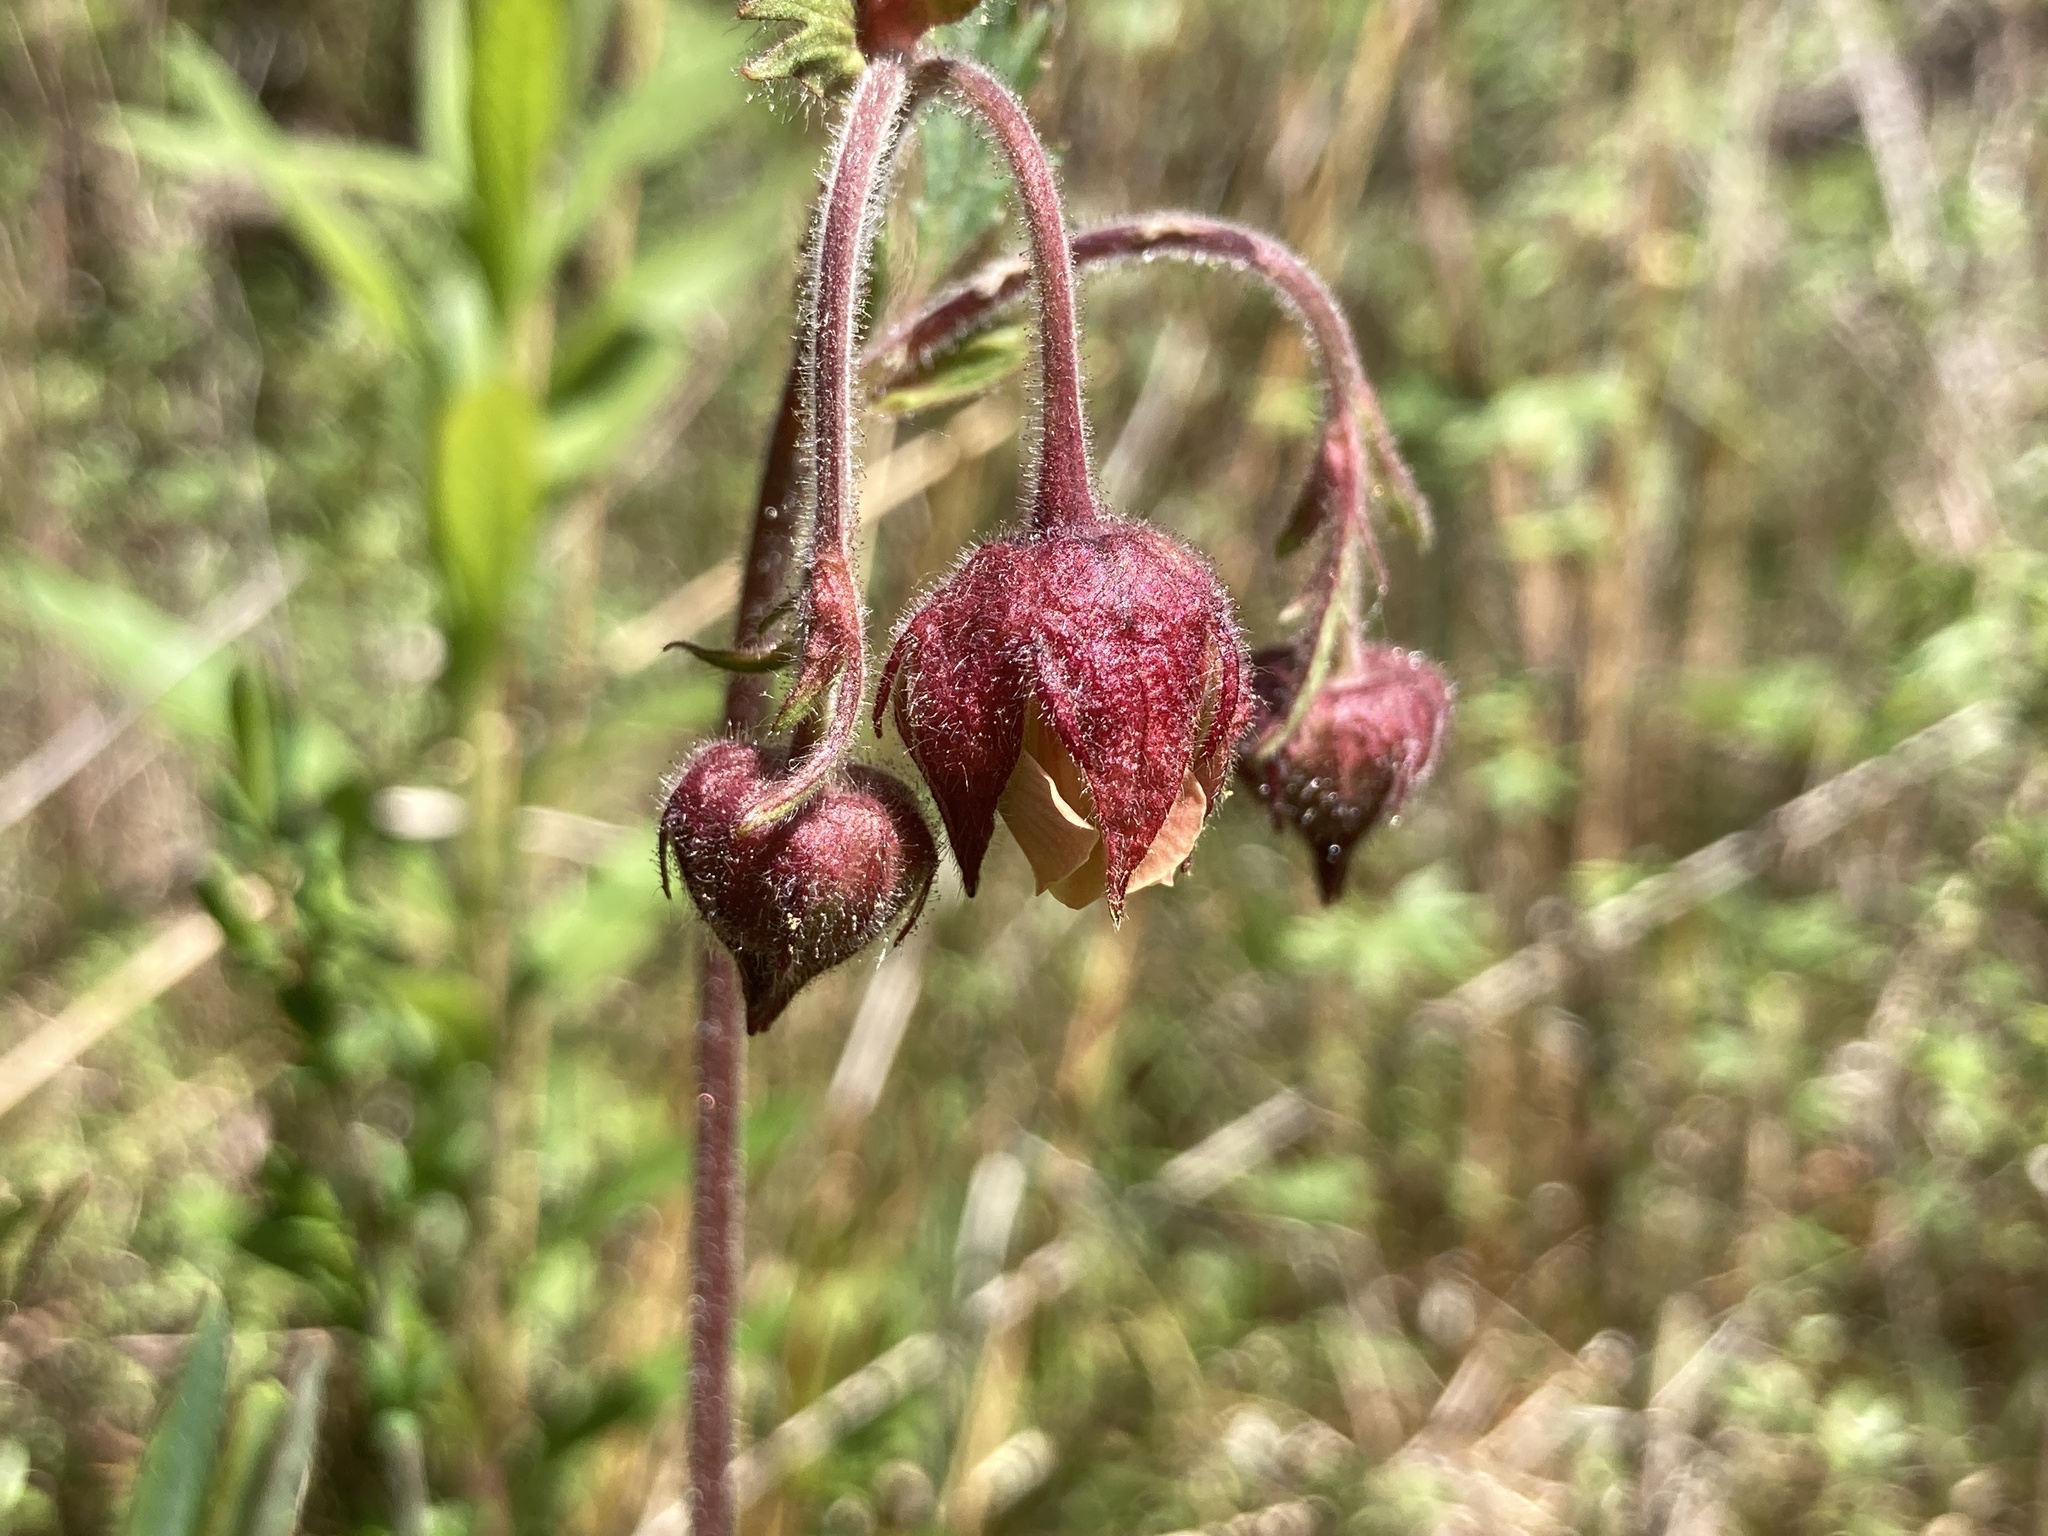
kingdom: Plantae
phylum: Tracheophyta
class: Magnoliopsida
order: Rosales
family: Rosaceae
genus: Geum
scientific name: Geum rivale
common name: Water avens
